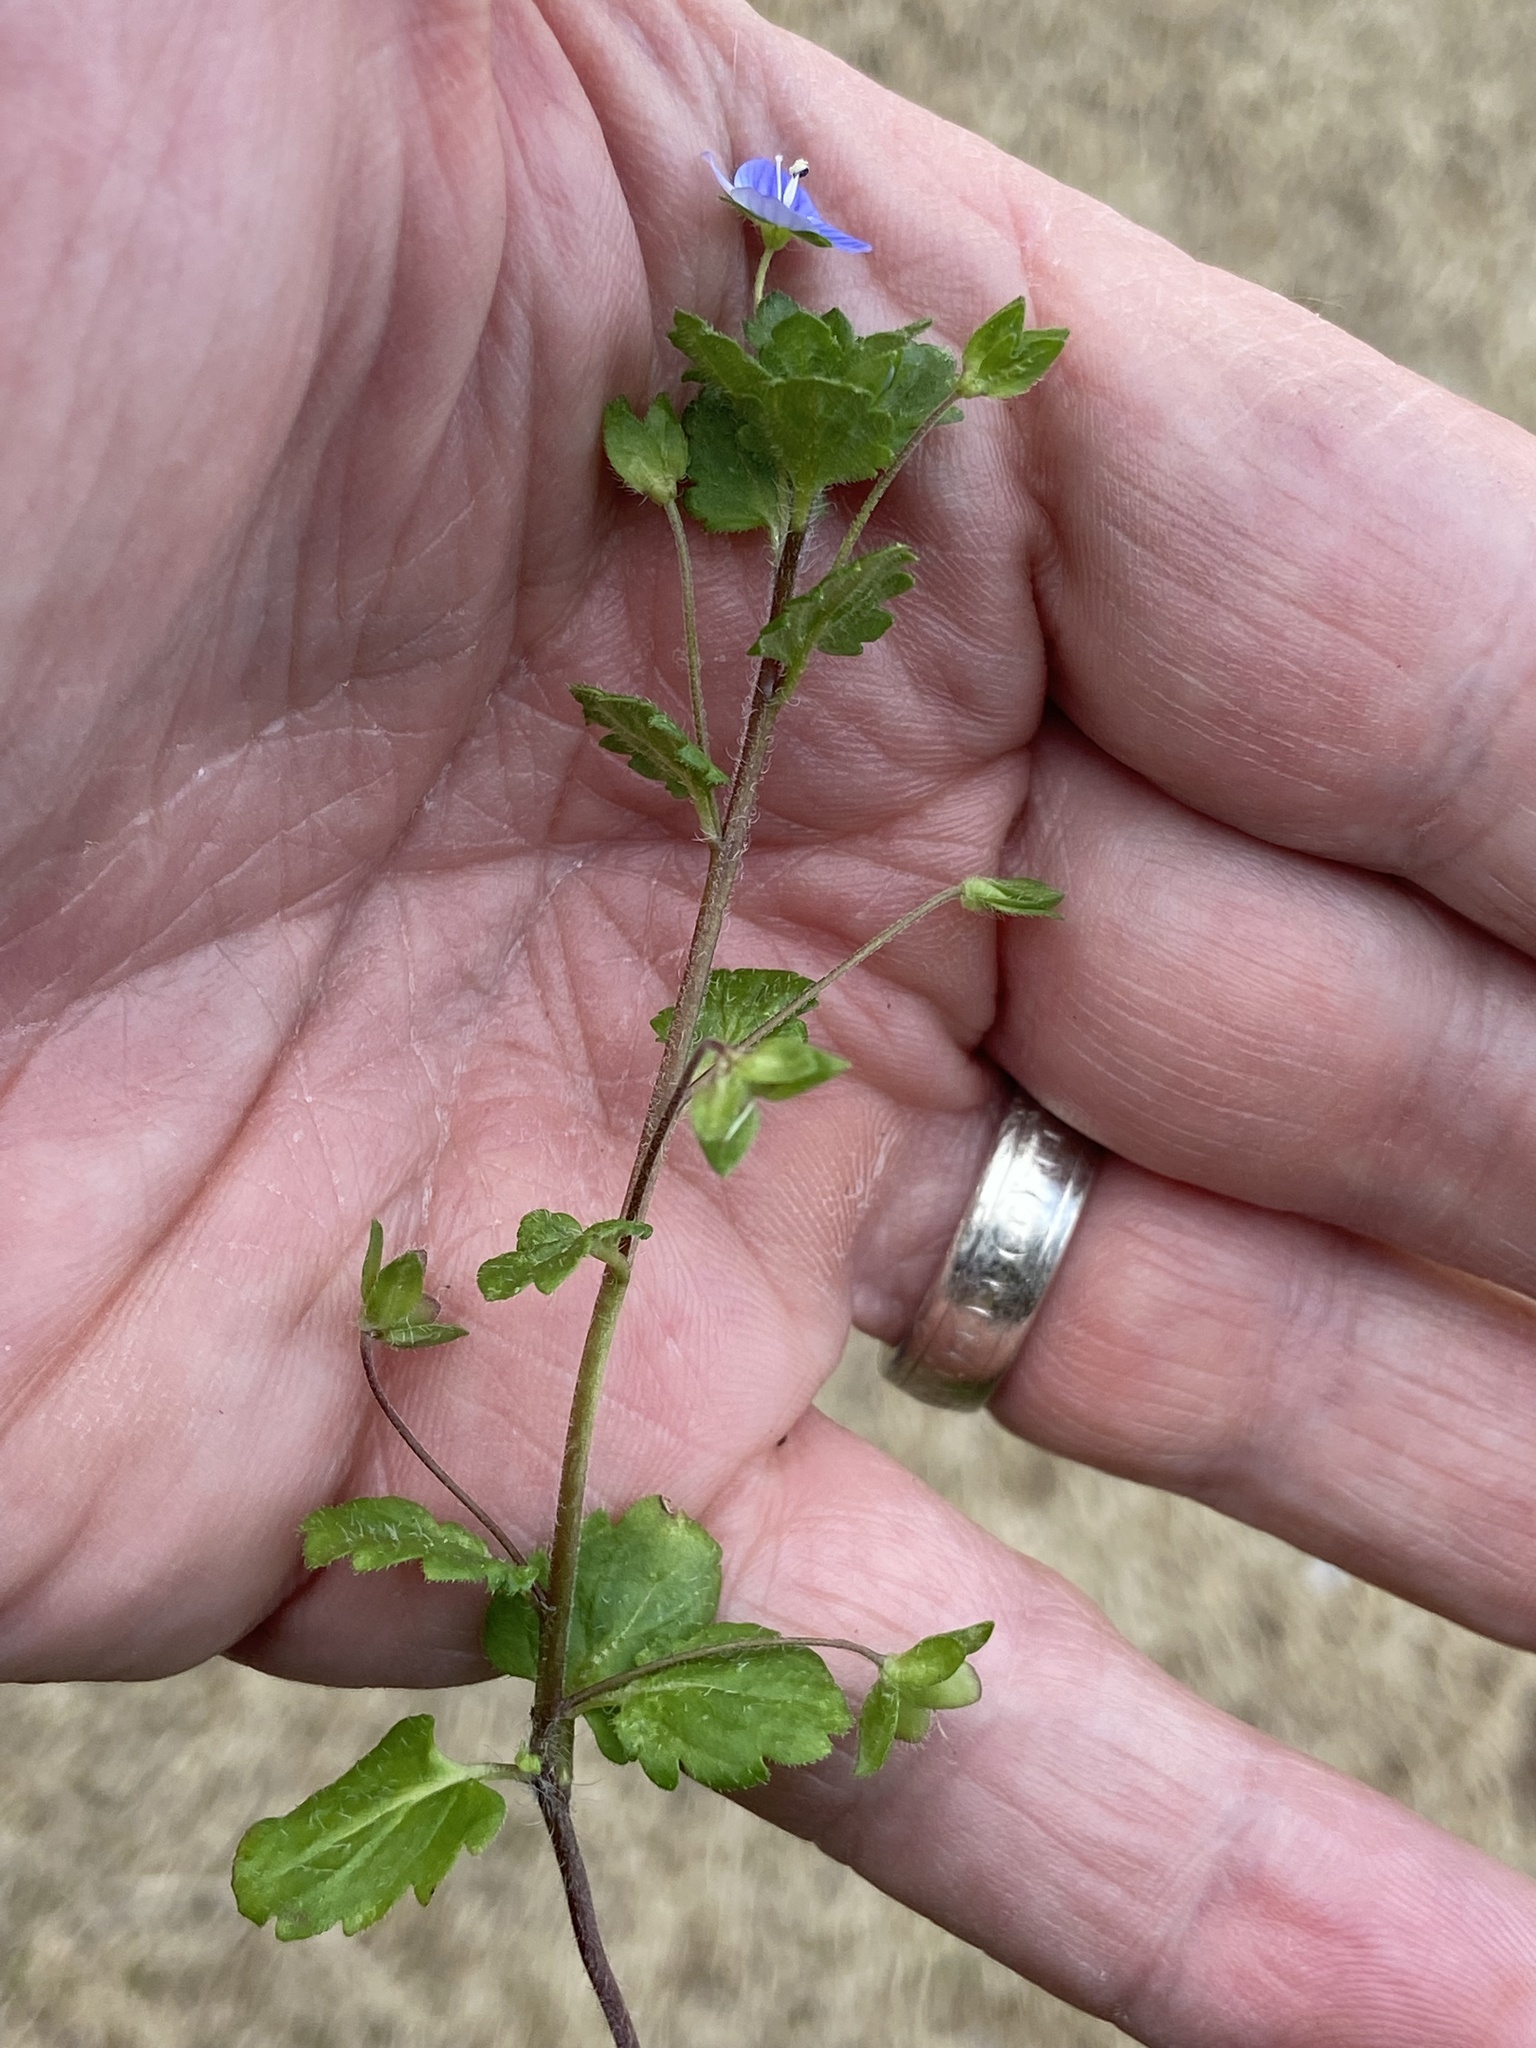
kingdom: Plantae
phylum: Tracheophyta
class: Magnoliopsida
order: Lamiales
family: Plantaginaceae
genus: Veronica
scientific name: Veronica persica
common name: Common field-speedwell
